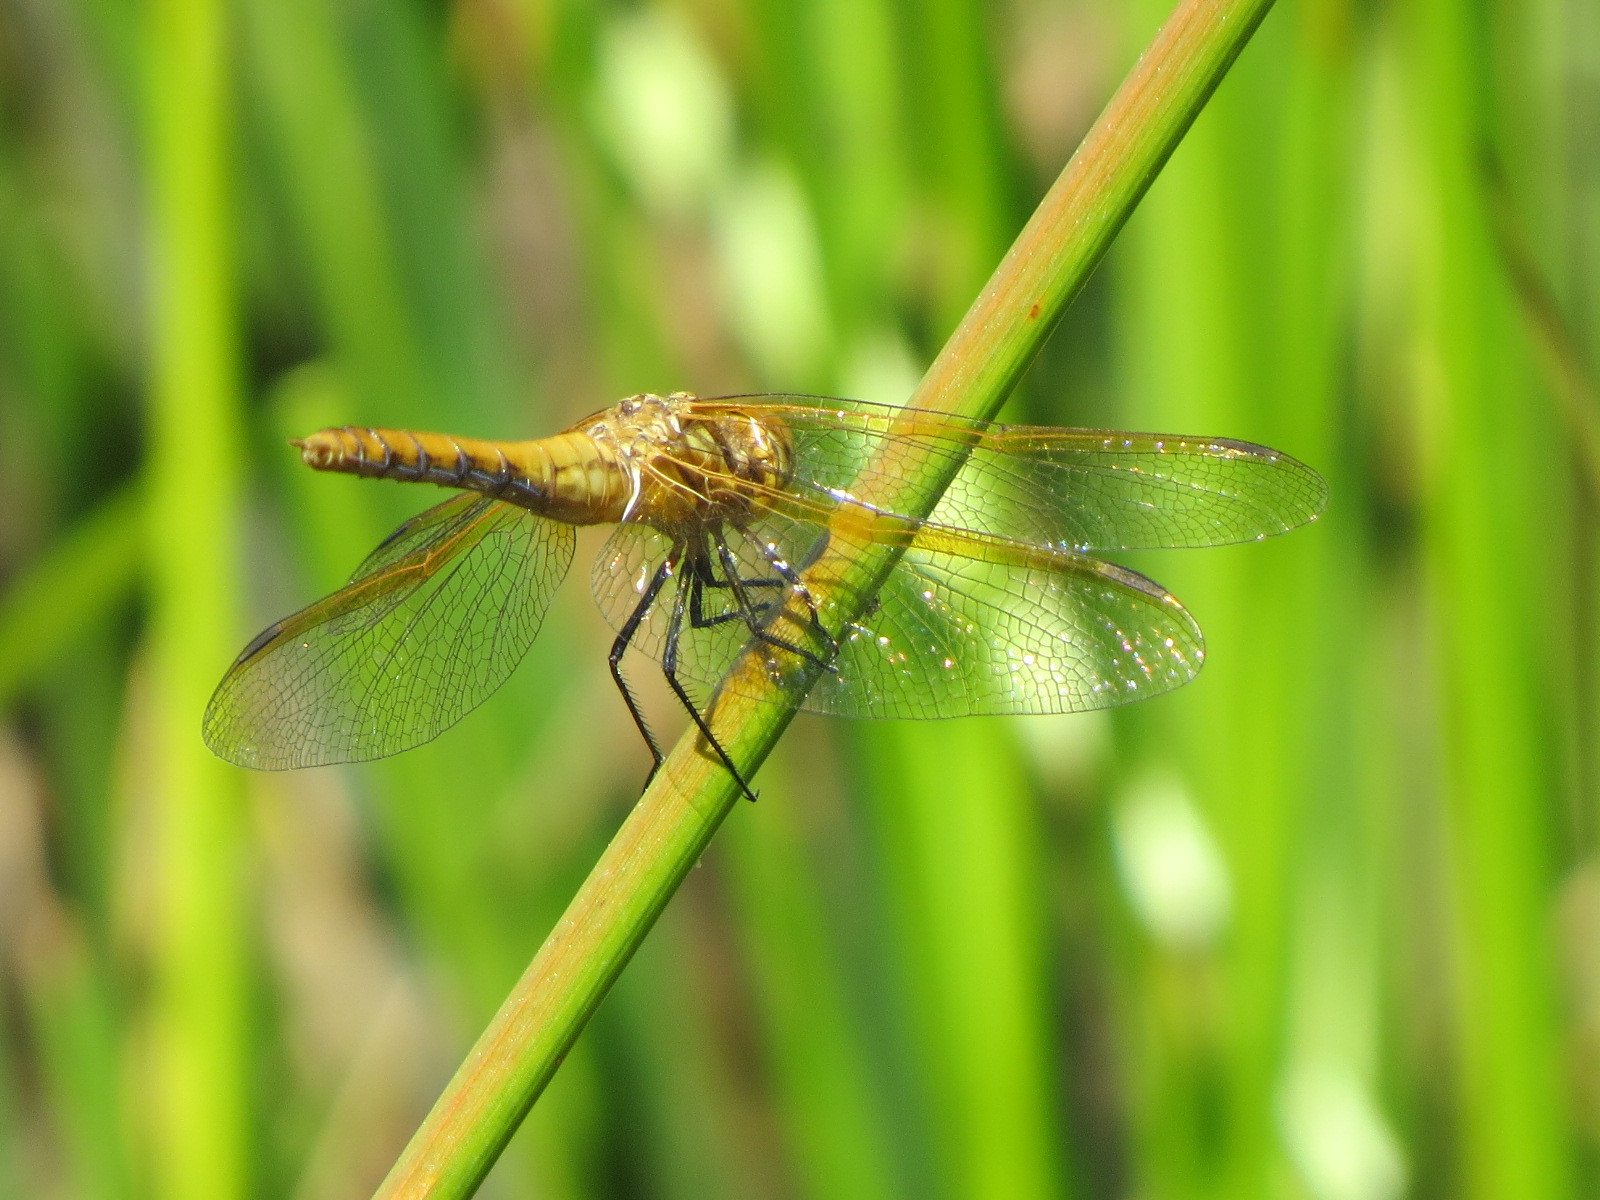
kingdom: Animalia
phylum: Arthropoda
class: Insecta
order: Odonata
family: Libellulidae
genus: Sympetrum
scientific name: Sympetrum madidum
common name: Red-veined meadowhawk
